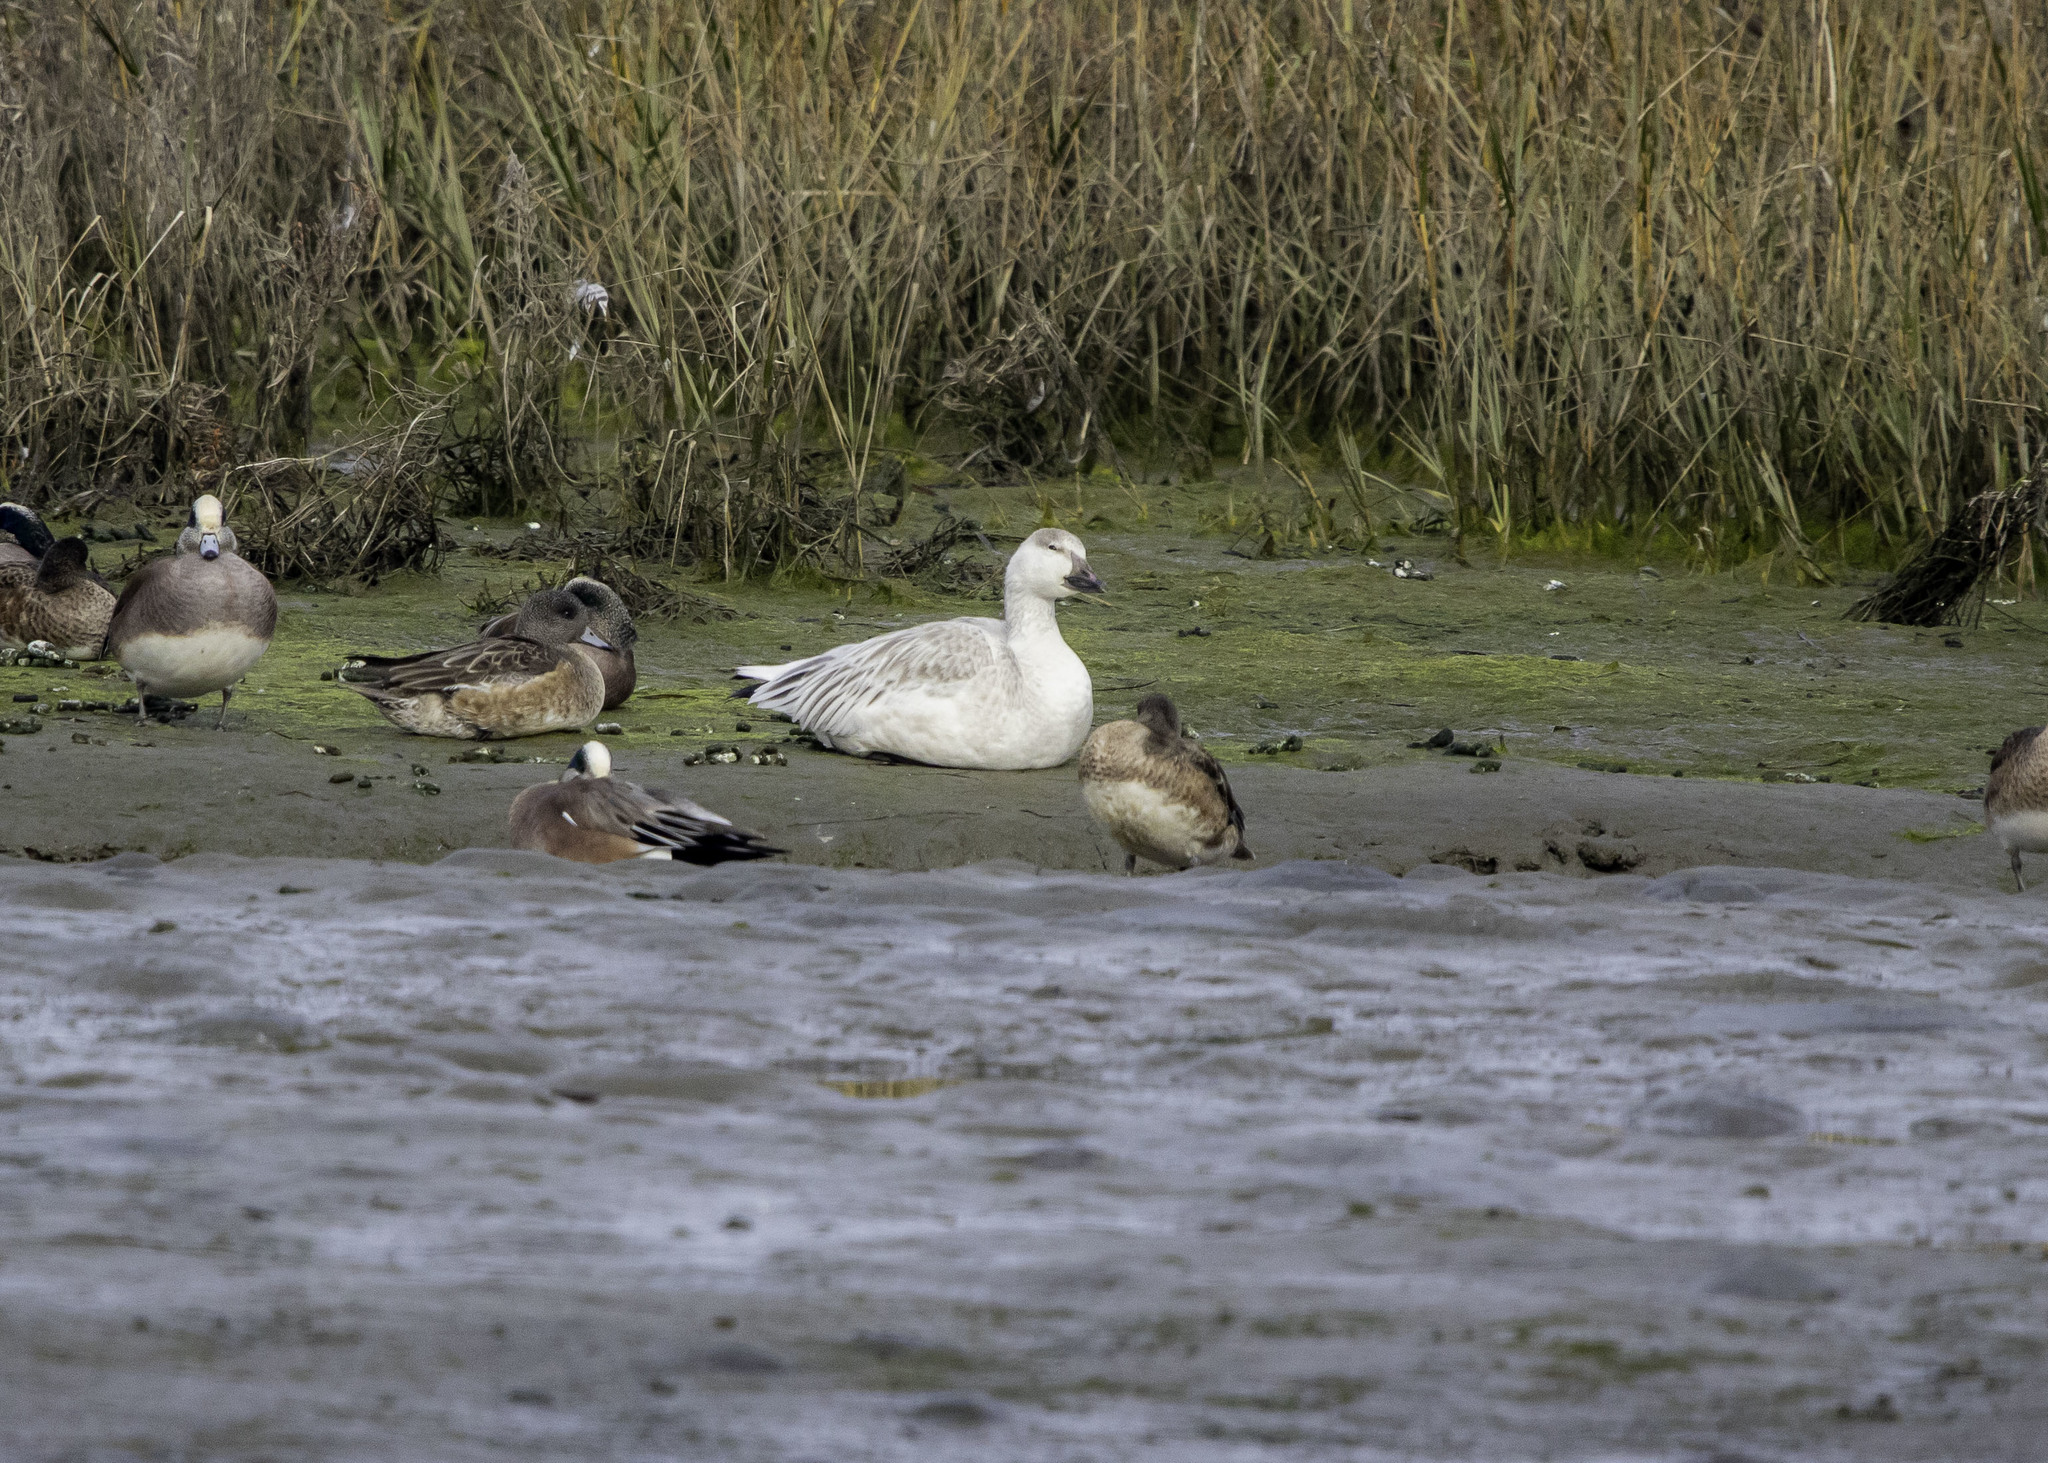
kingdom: Animalia
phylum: Chordata
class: Aves
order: Anseriformes
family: Anatidae
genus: Anser
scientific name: Anser caerulescens
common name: Snow goose
